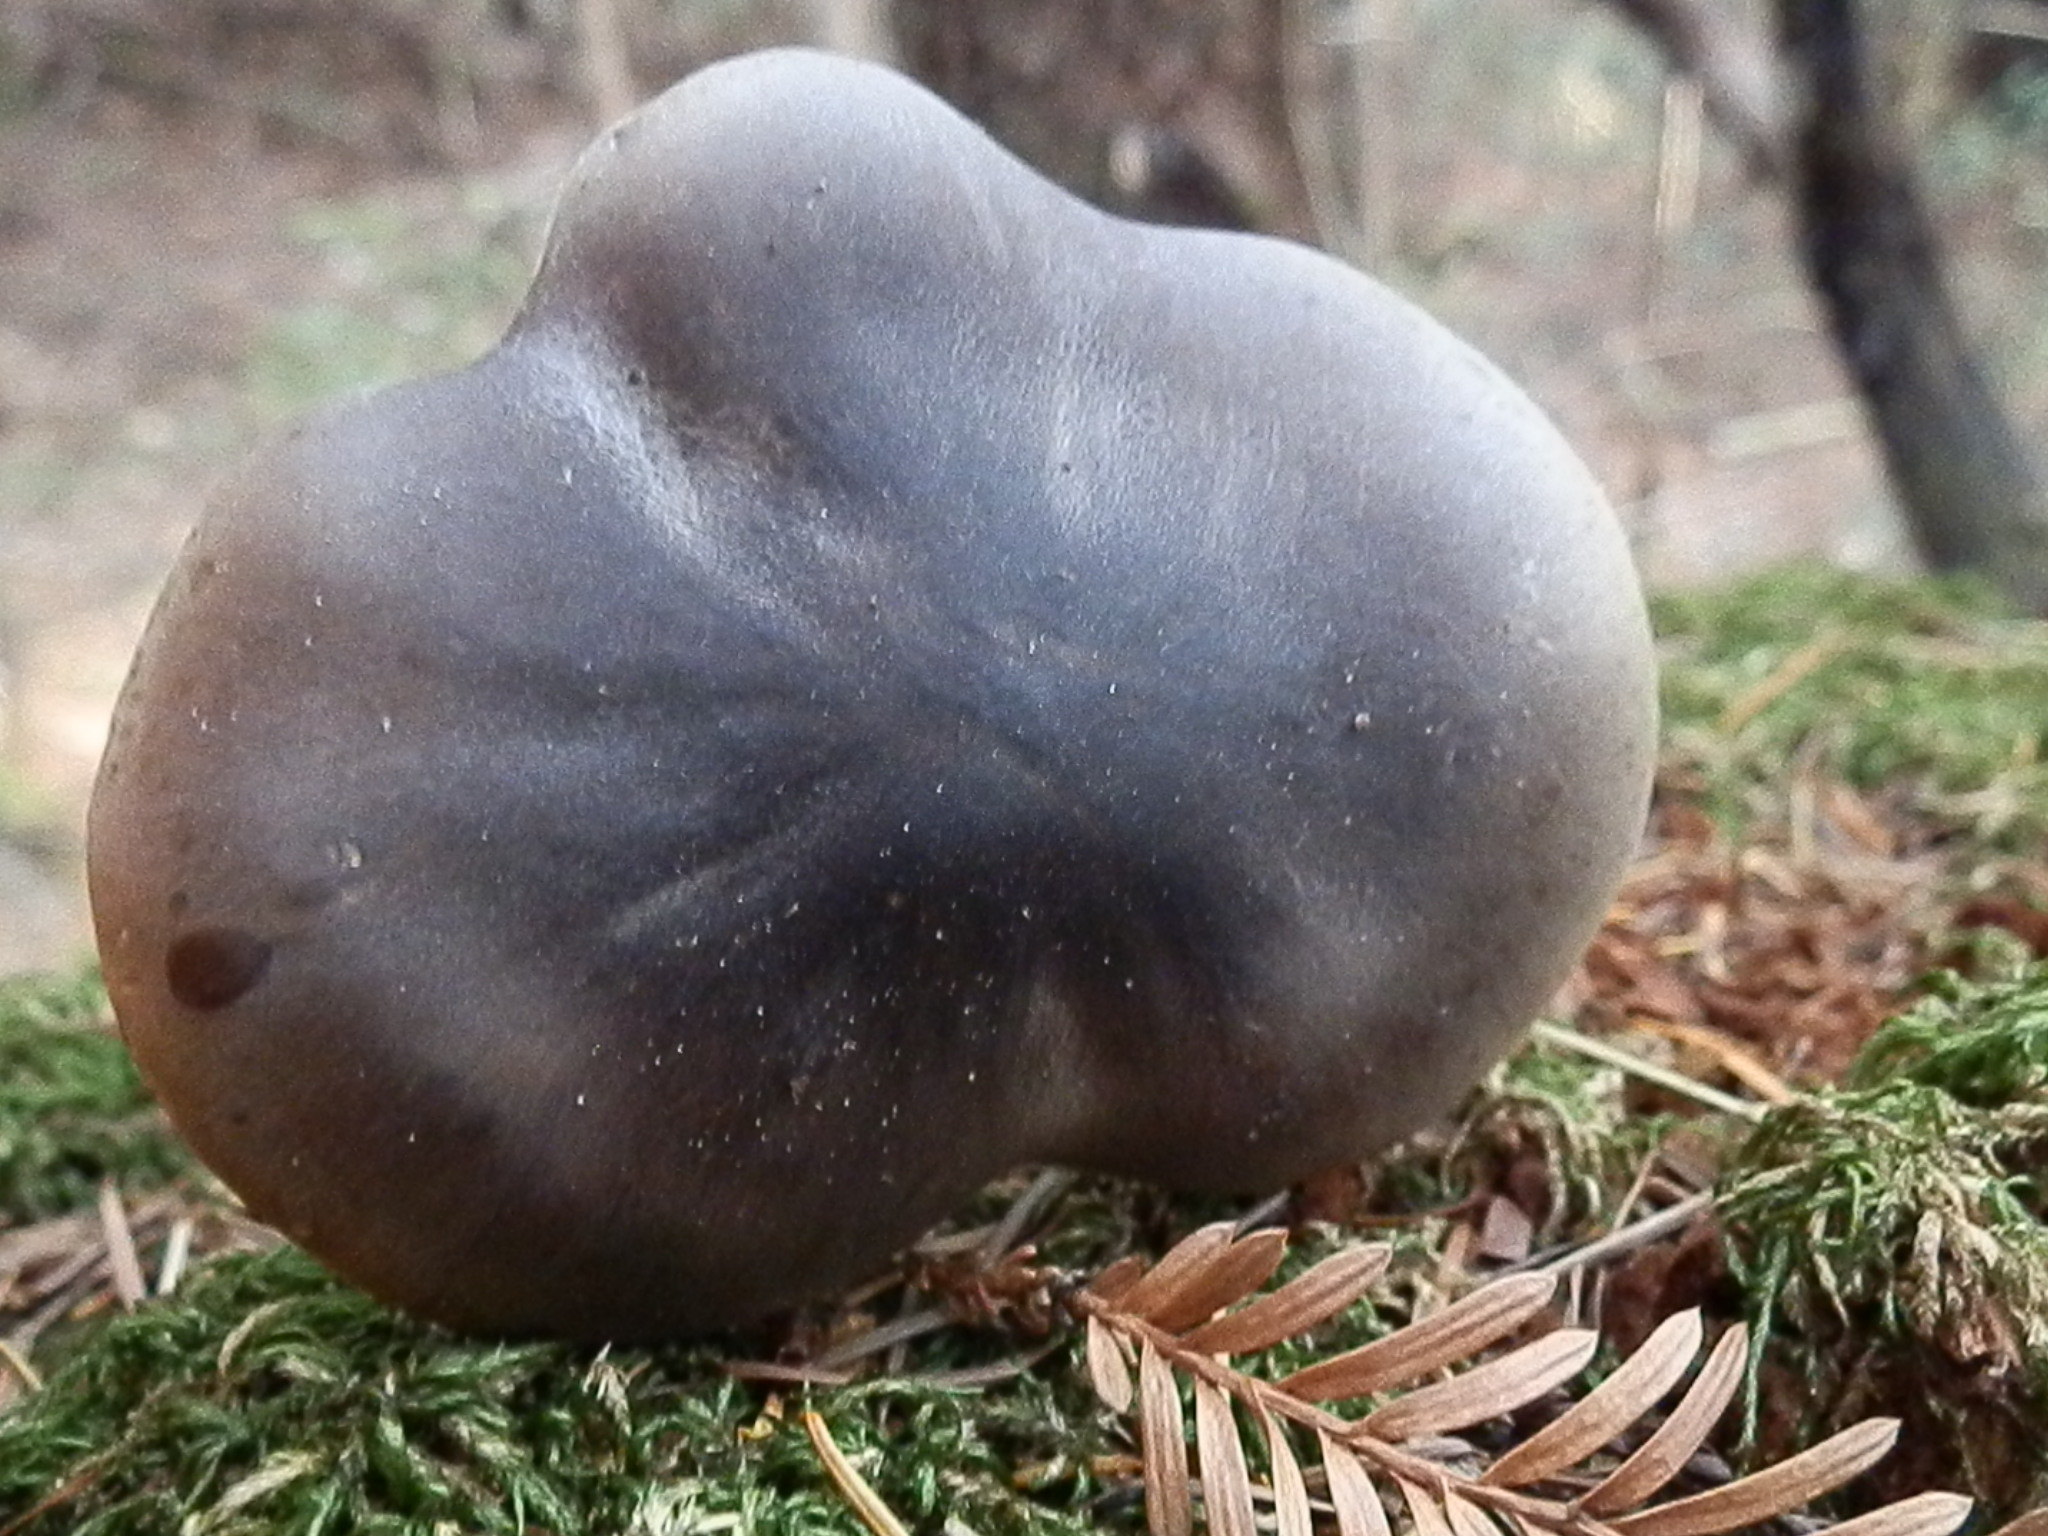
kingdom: Fungi
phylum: Basidiomycota
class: Agaricomycetes
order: Agaricales
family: Tricholomataceae
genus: Melanoleuca
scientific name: Melanoleuca strictipes
